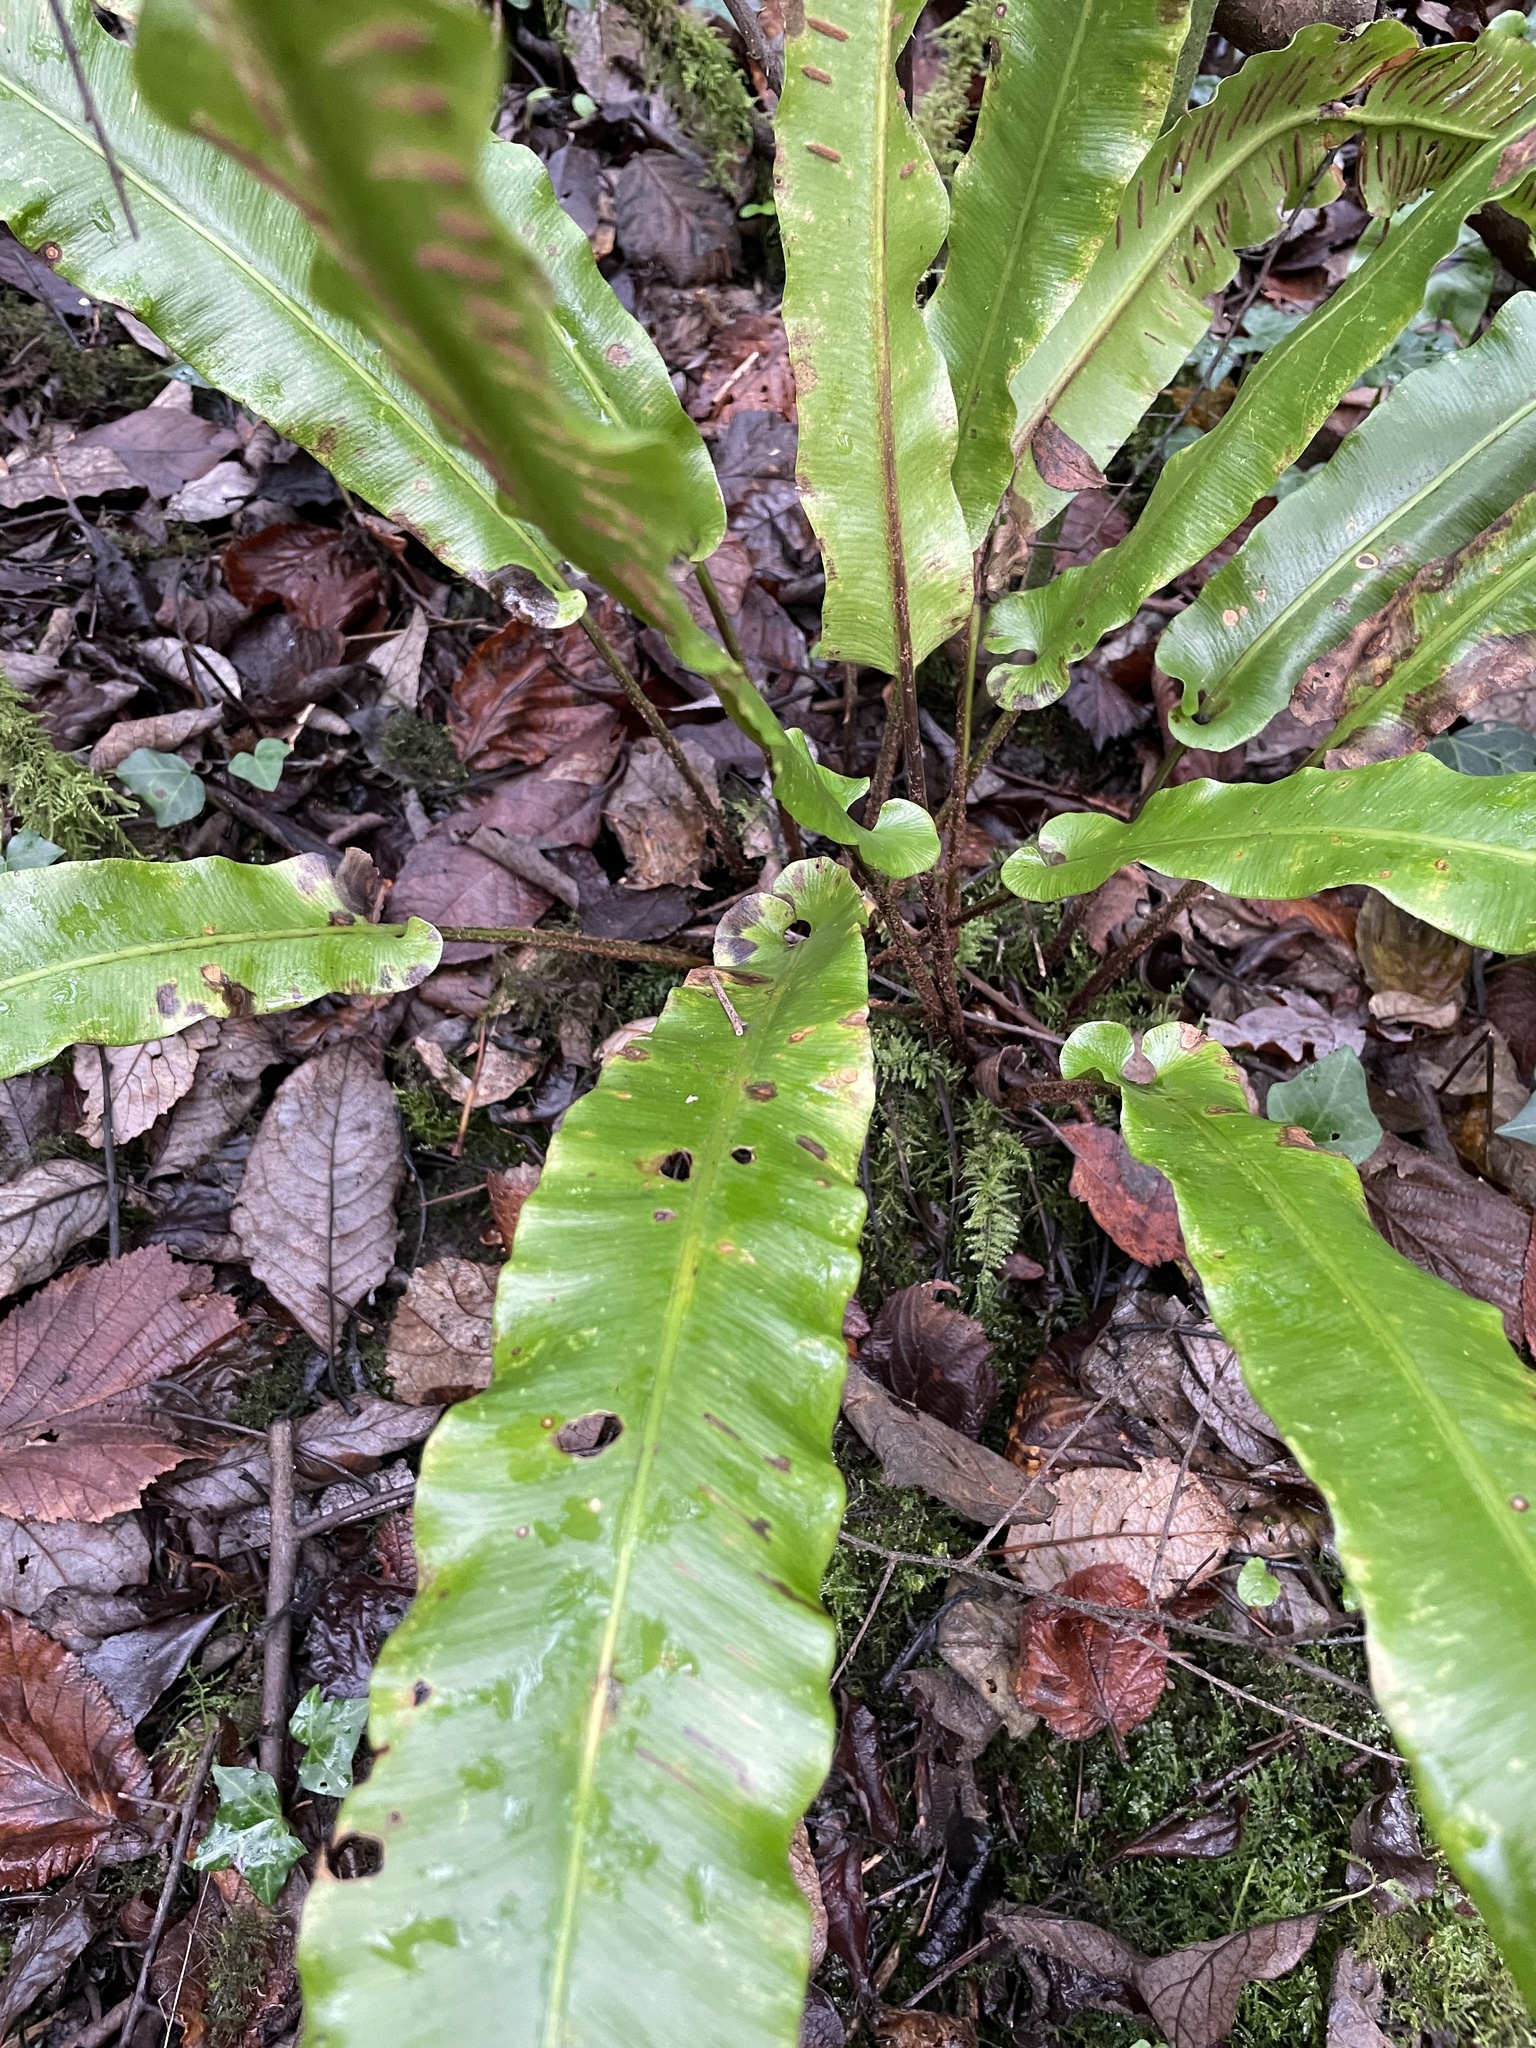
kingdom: Plantae
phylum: Tracheophyta
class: Polypodiopsida
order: Polypodiales
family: Aspleniaceae
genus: Asplenium
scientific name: Asplenium scolopendrium
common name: Hart's-tongue fern
